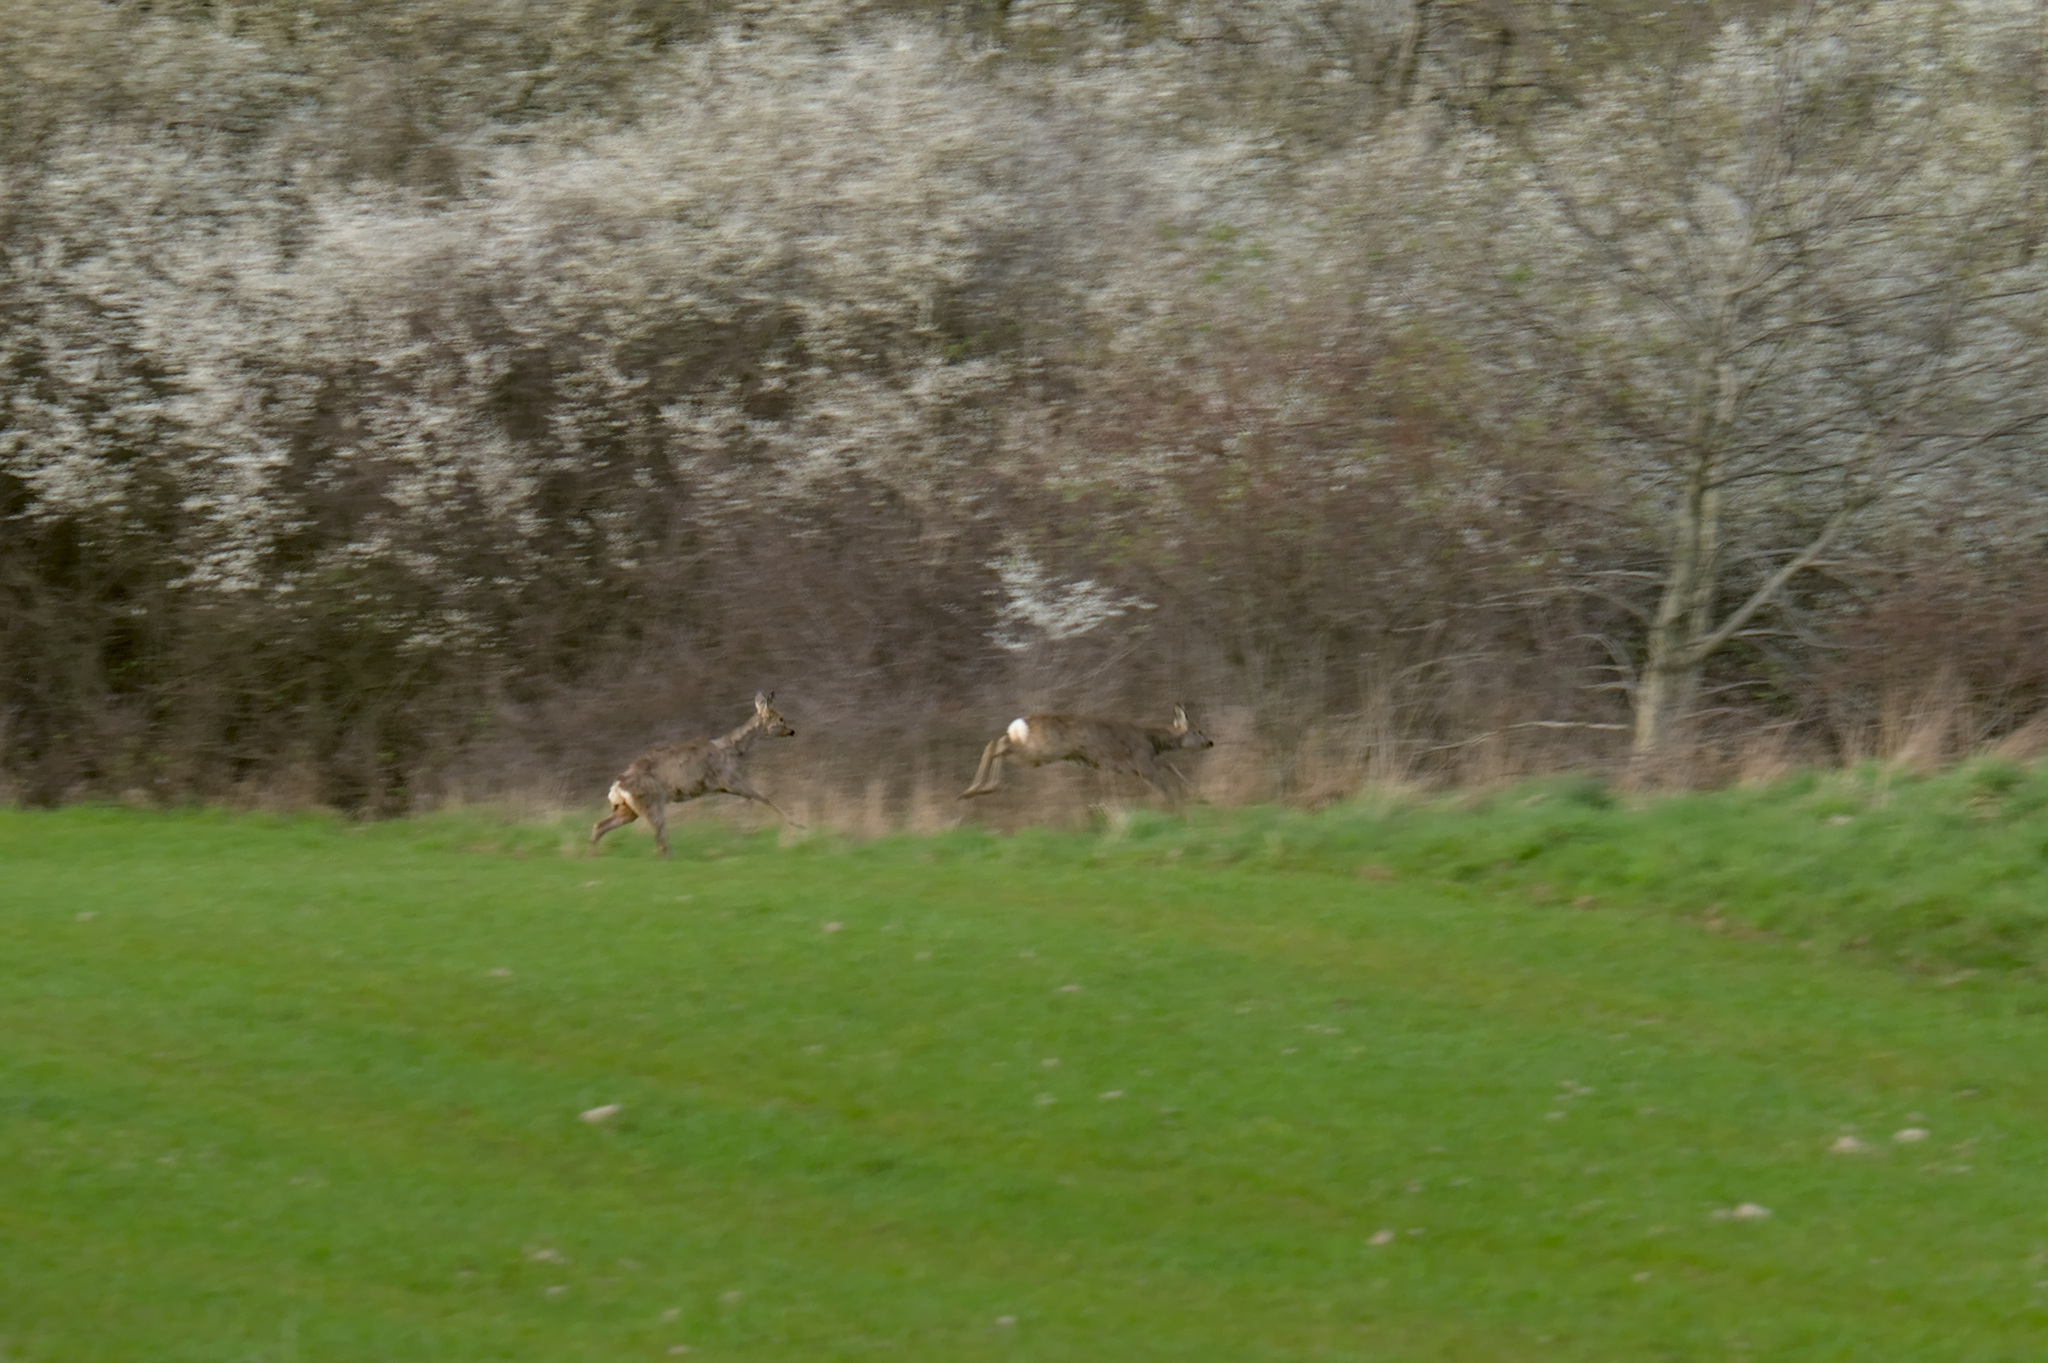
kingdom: Animalia
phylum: Chordata
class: Mammalia
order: Artiodactyla
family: Cervidae
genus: Capreolus
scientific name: Capreolus capreolus
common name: Western roe deer
